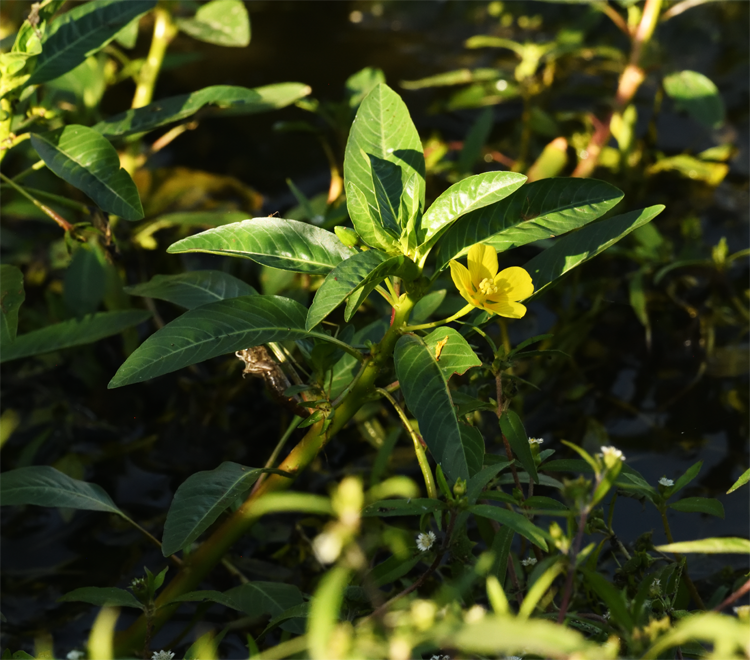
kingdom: Plantae
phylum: Tracheophyta
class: Magnoliopsida
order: Myrtales
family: Onagraceae
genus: Ludwigia
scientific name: Ludwigia peploides
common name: Floating primrose-willow
